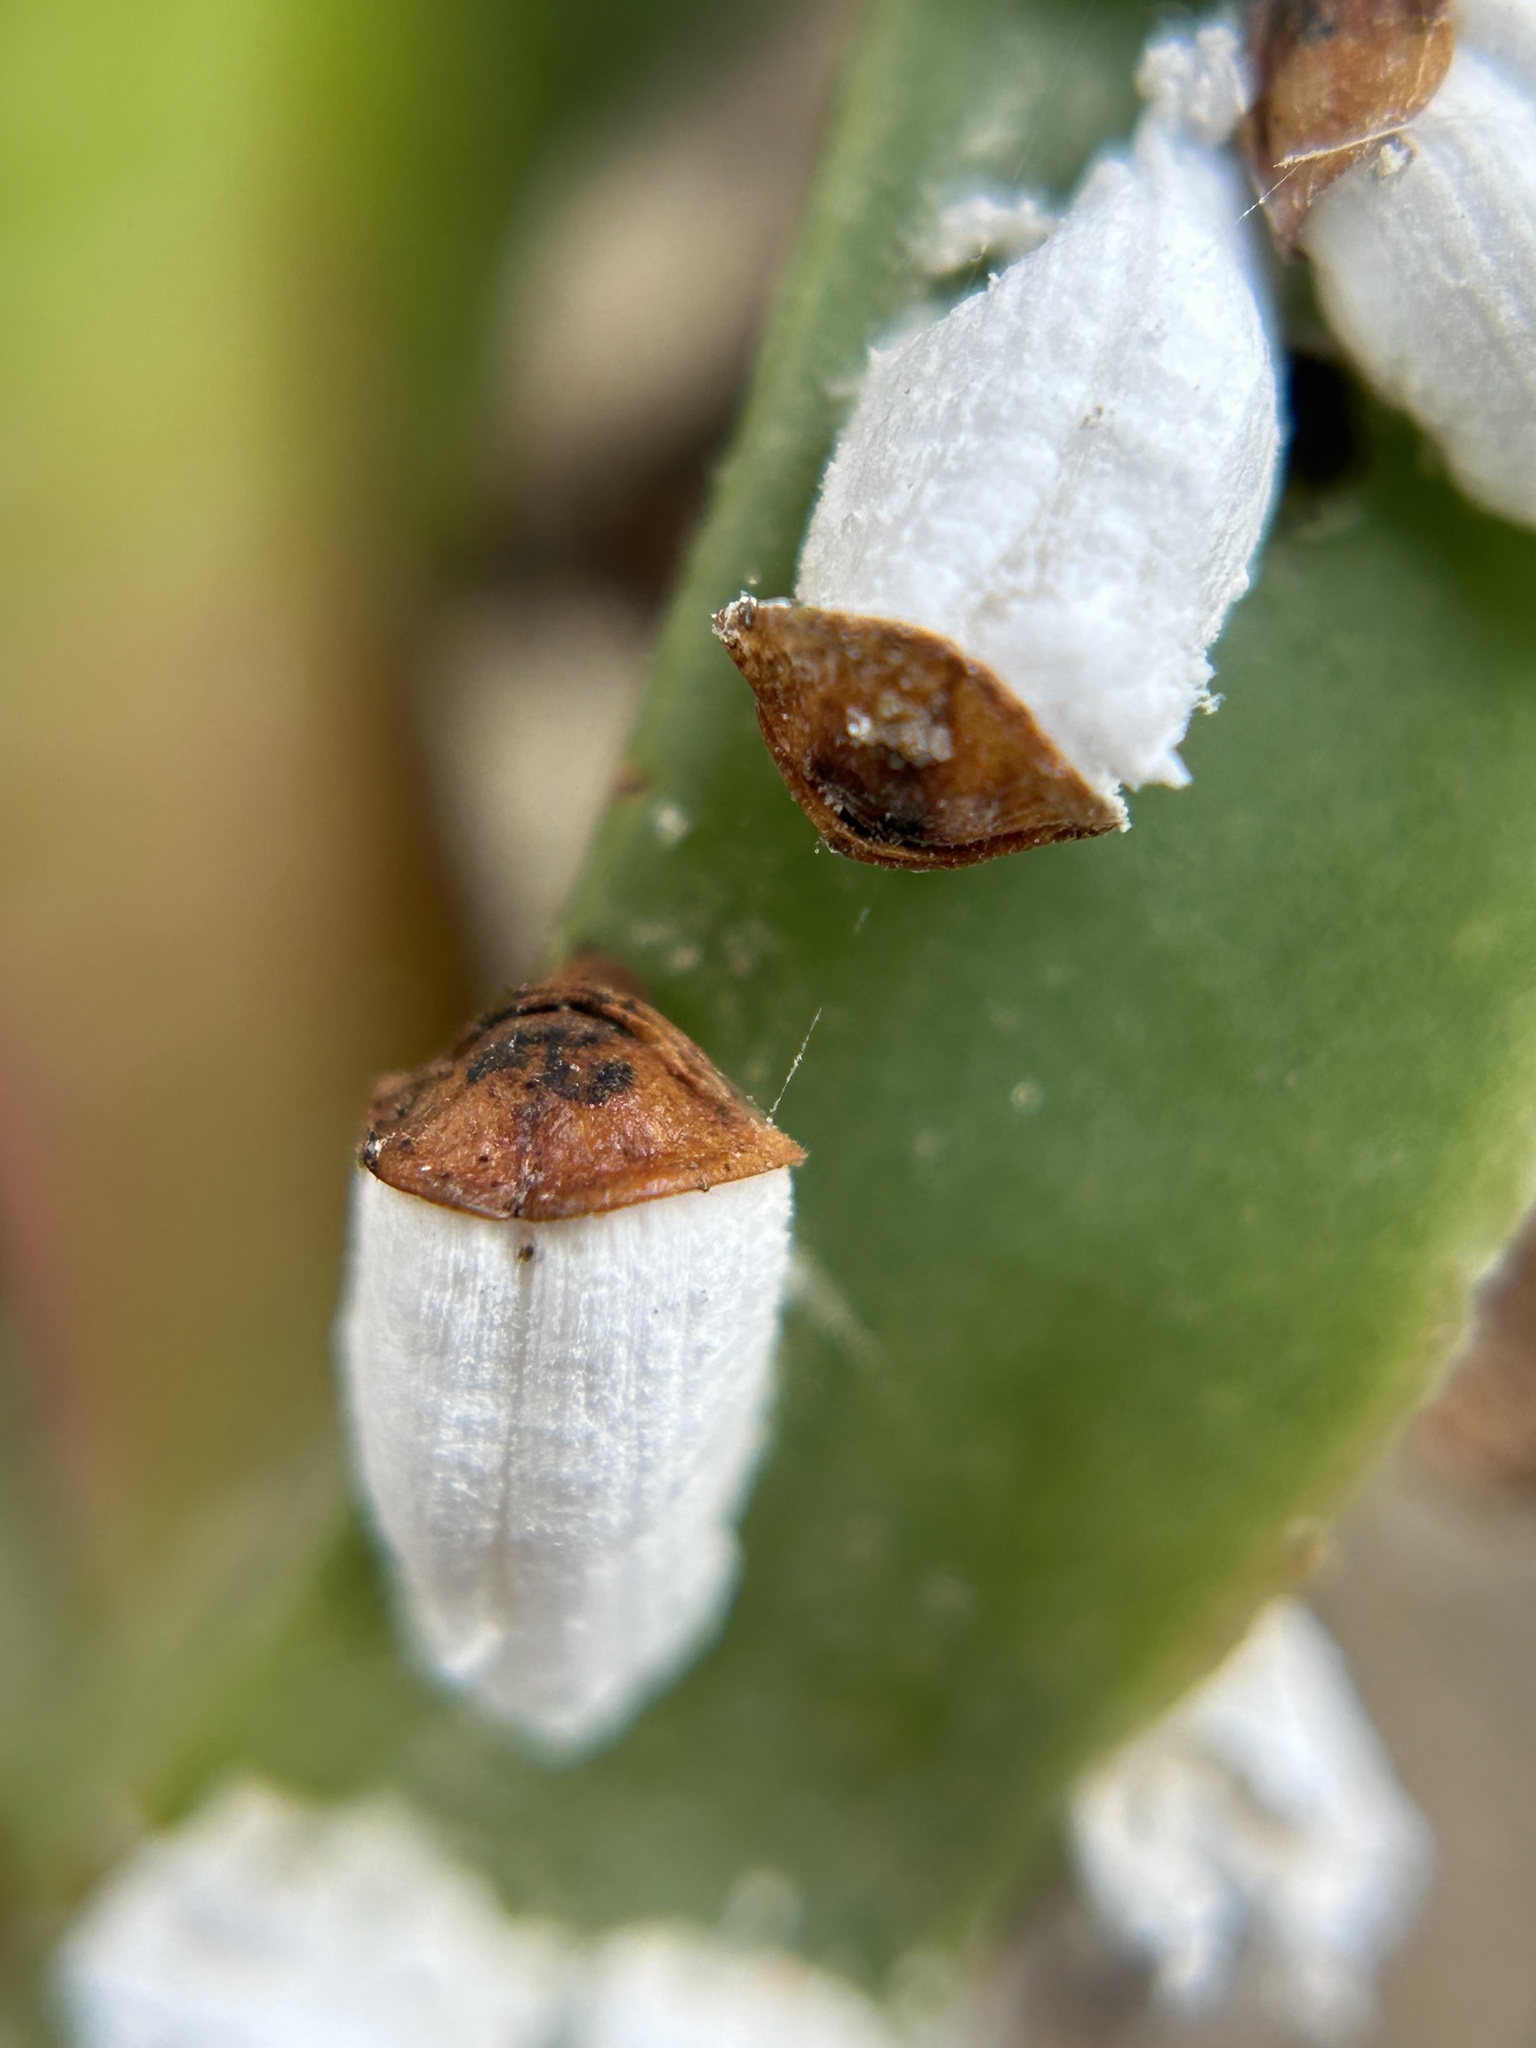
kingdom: Animalia
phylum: Arthropoda
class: Insecta
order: Hemiptera
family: Coccidae
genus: Pulvinariella
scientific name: Pulvinariella mesembryanthemi
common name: Cottony pigface scale
